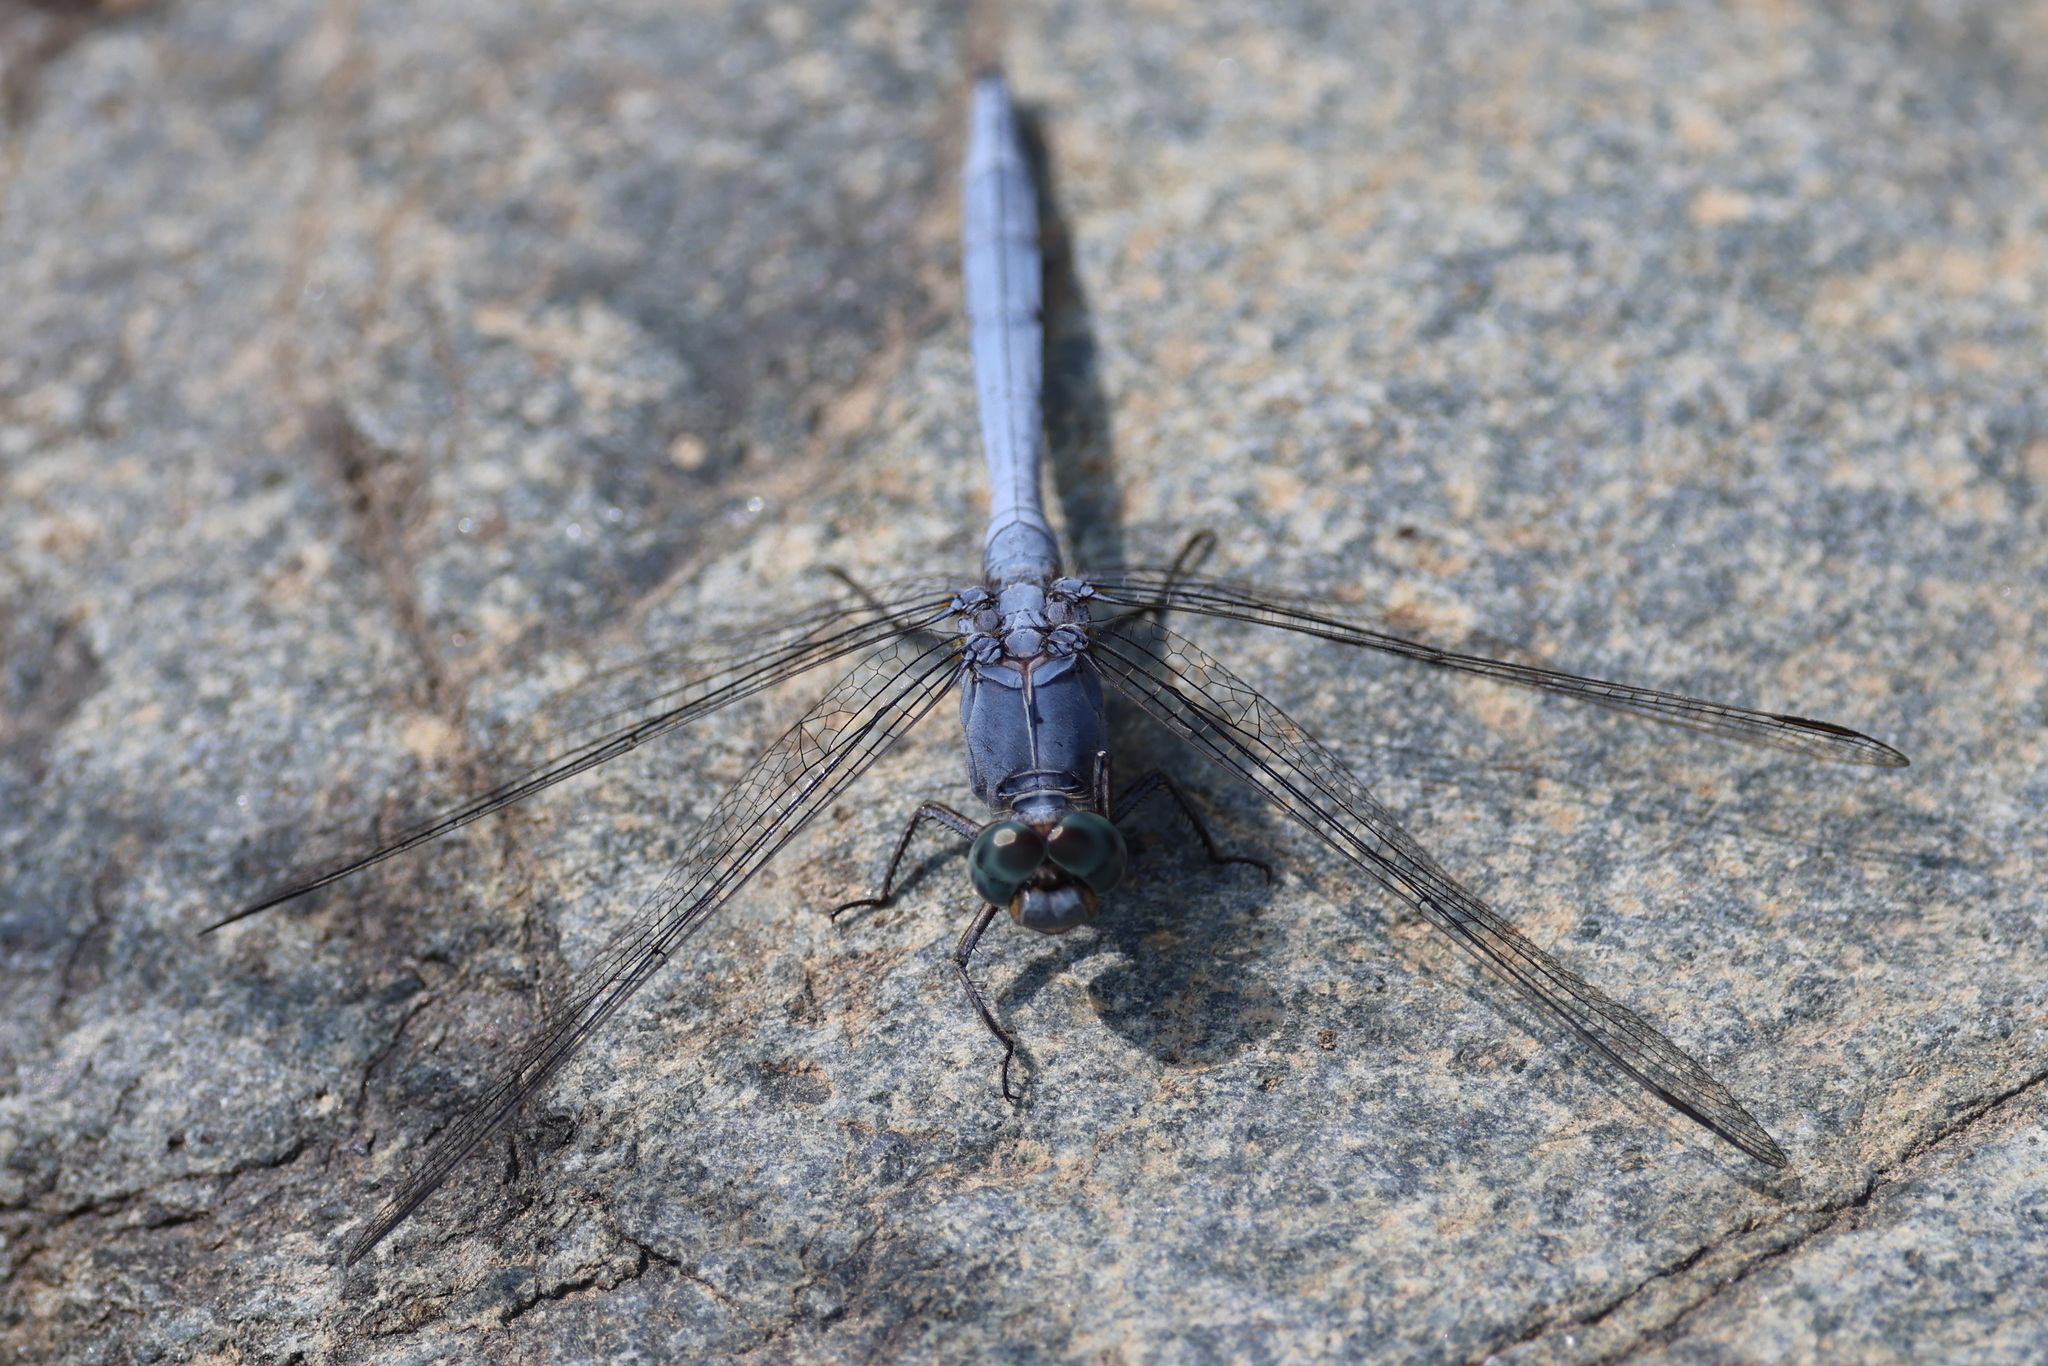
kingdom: Animalia
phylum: Arthropoda
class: Insecta
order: Odonata
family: Libellulidae
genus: Orthetrum
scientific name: Orthetrum chrysostigma
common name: Epaulet skimmer
